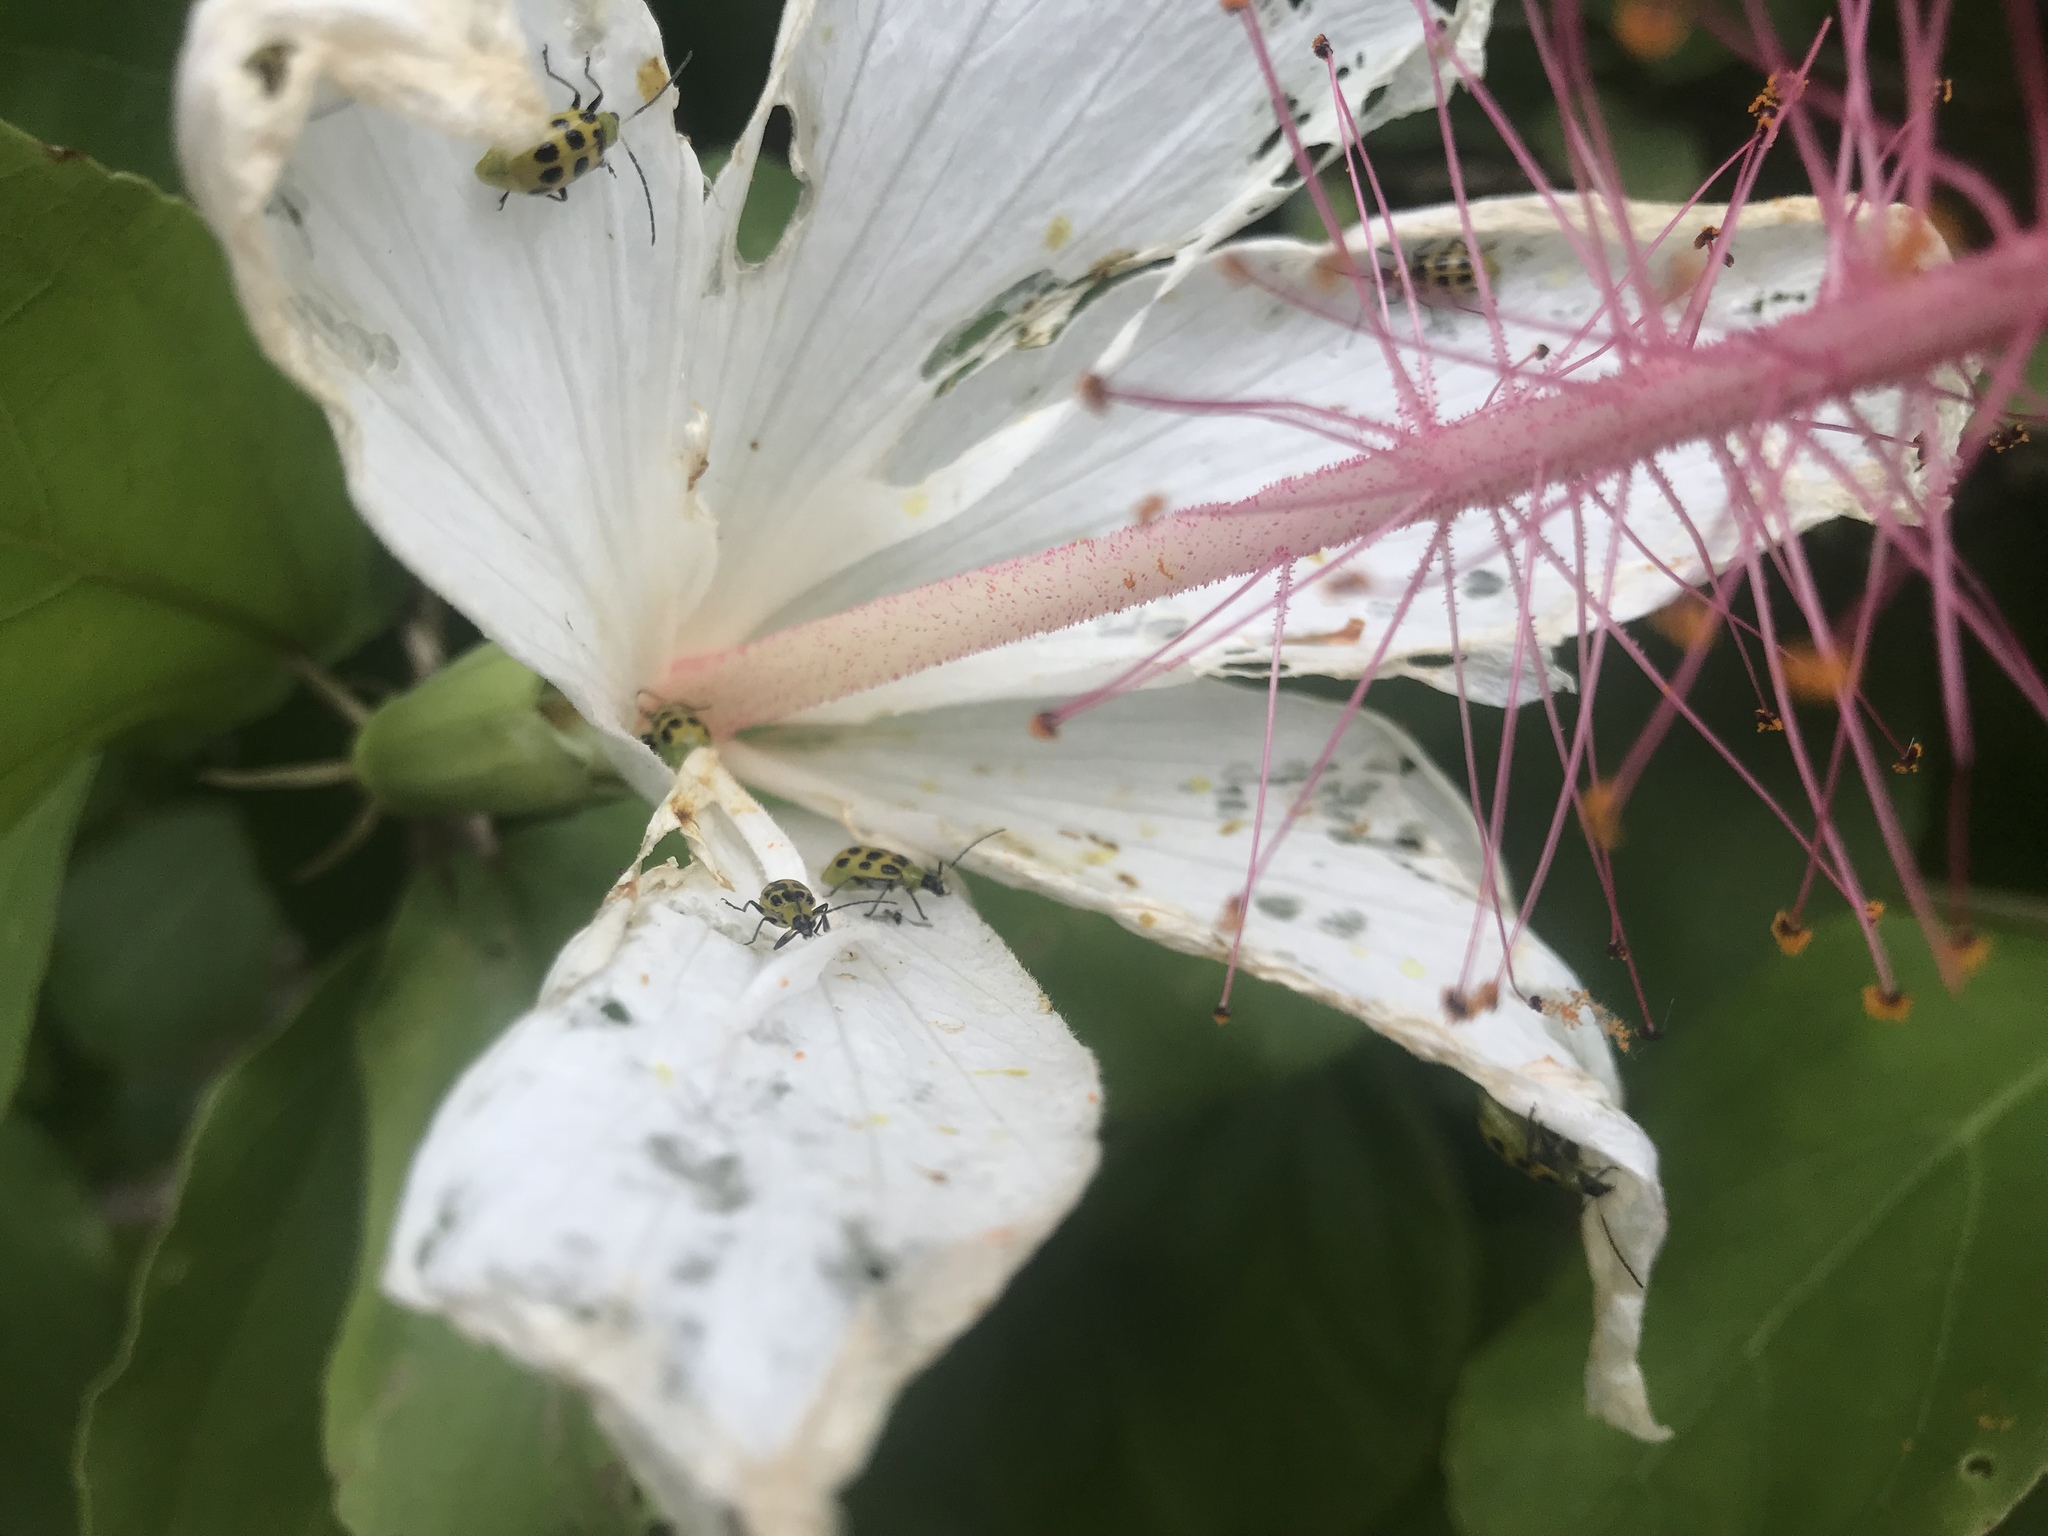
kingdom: Animalia
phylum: Arthropoda
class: Insecta
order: Coleoptera
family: Chrysomelidae
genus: Diabrotica
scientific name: Diabrotica undecimpunctata
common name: Spotted cucumber beetle
